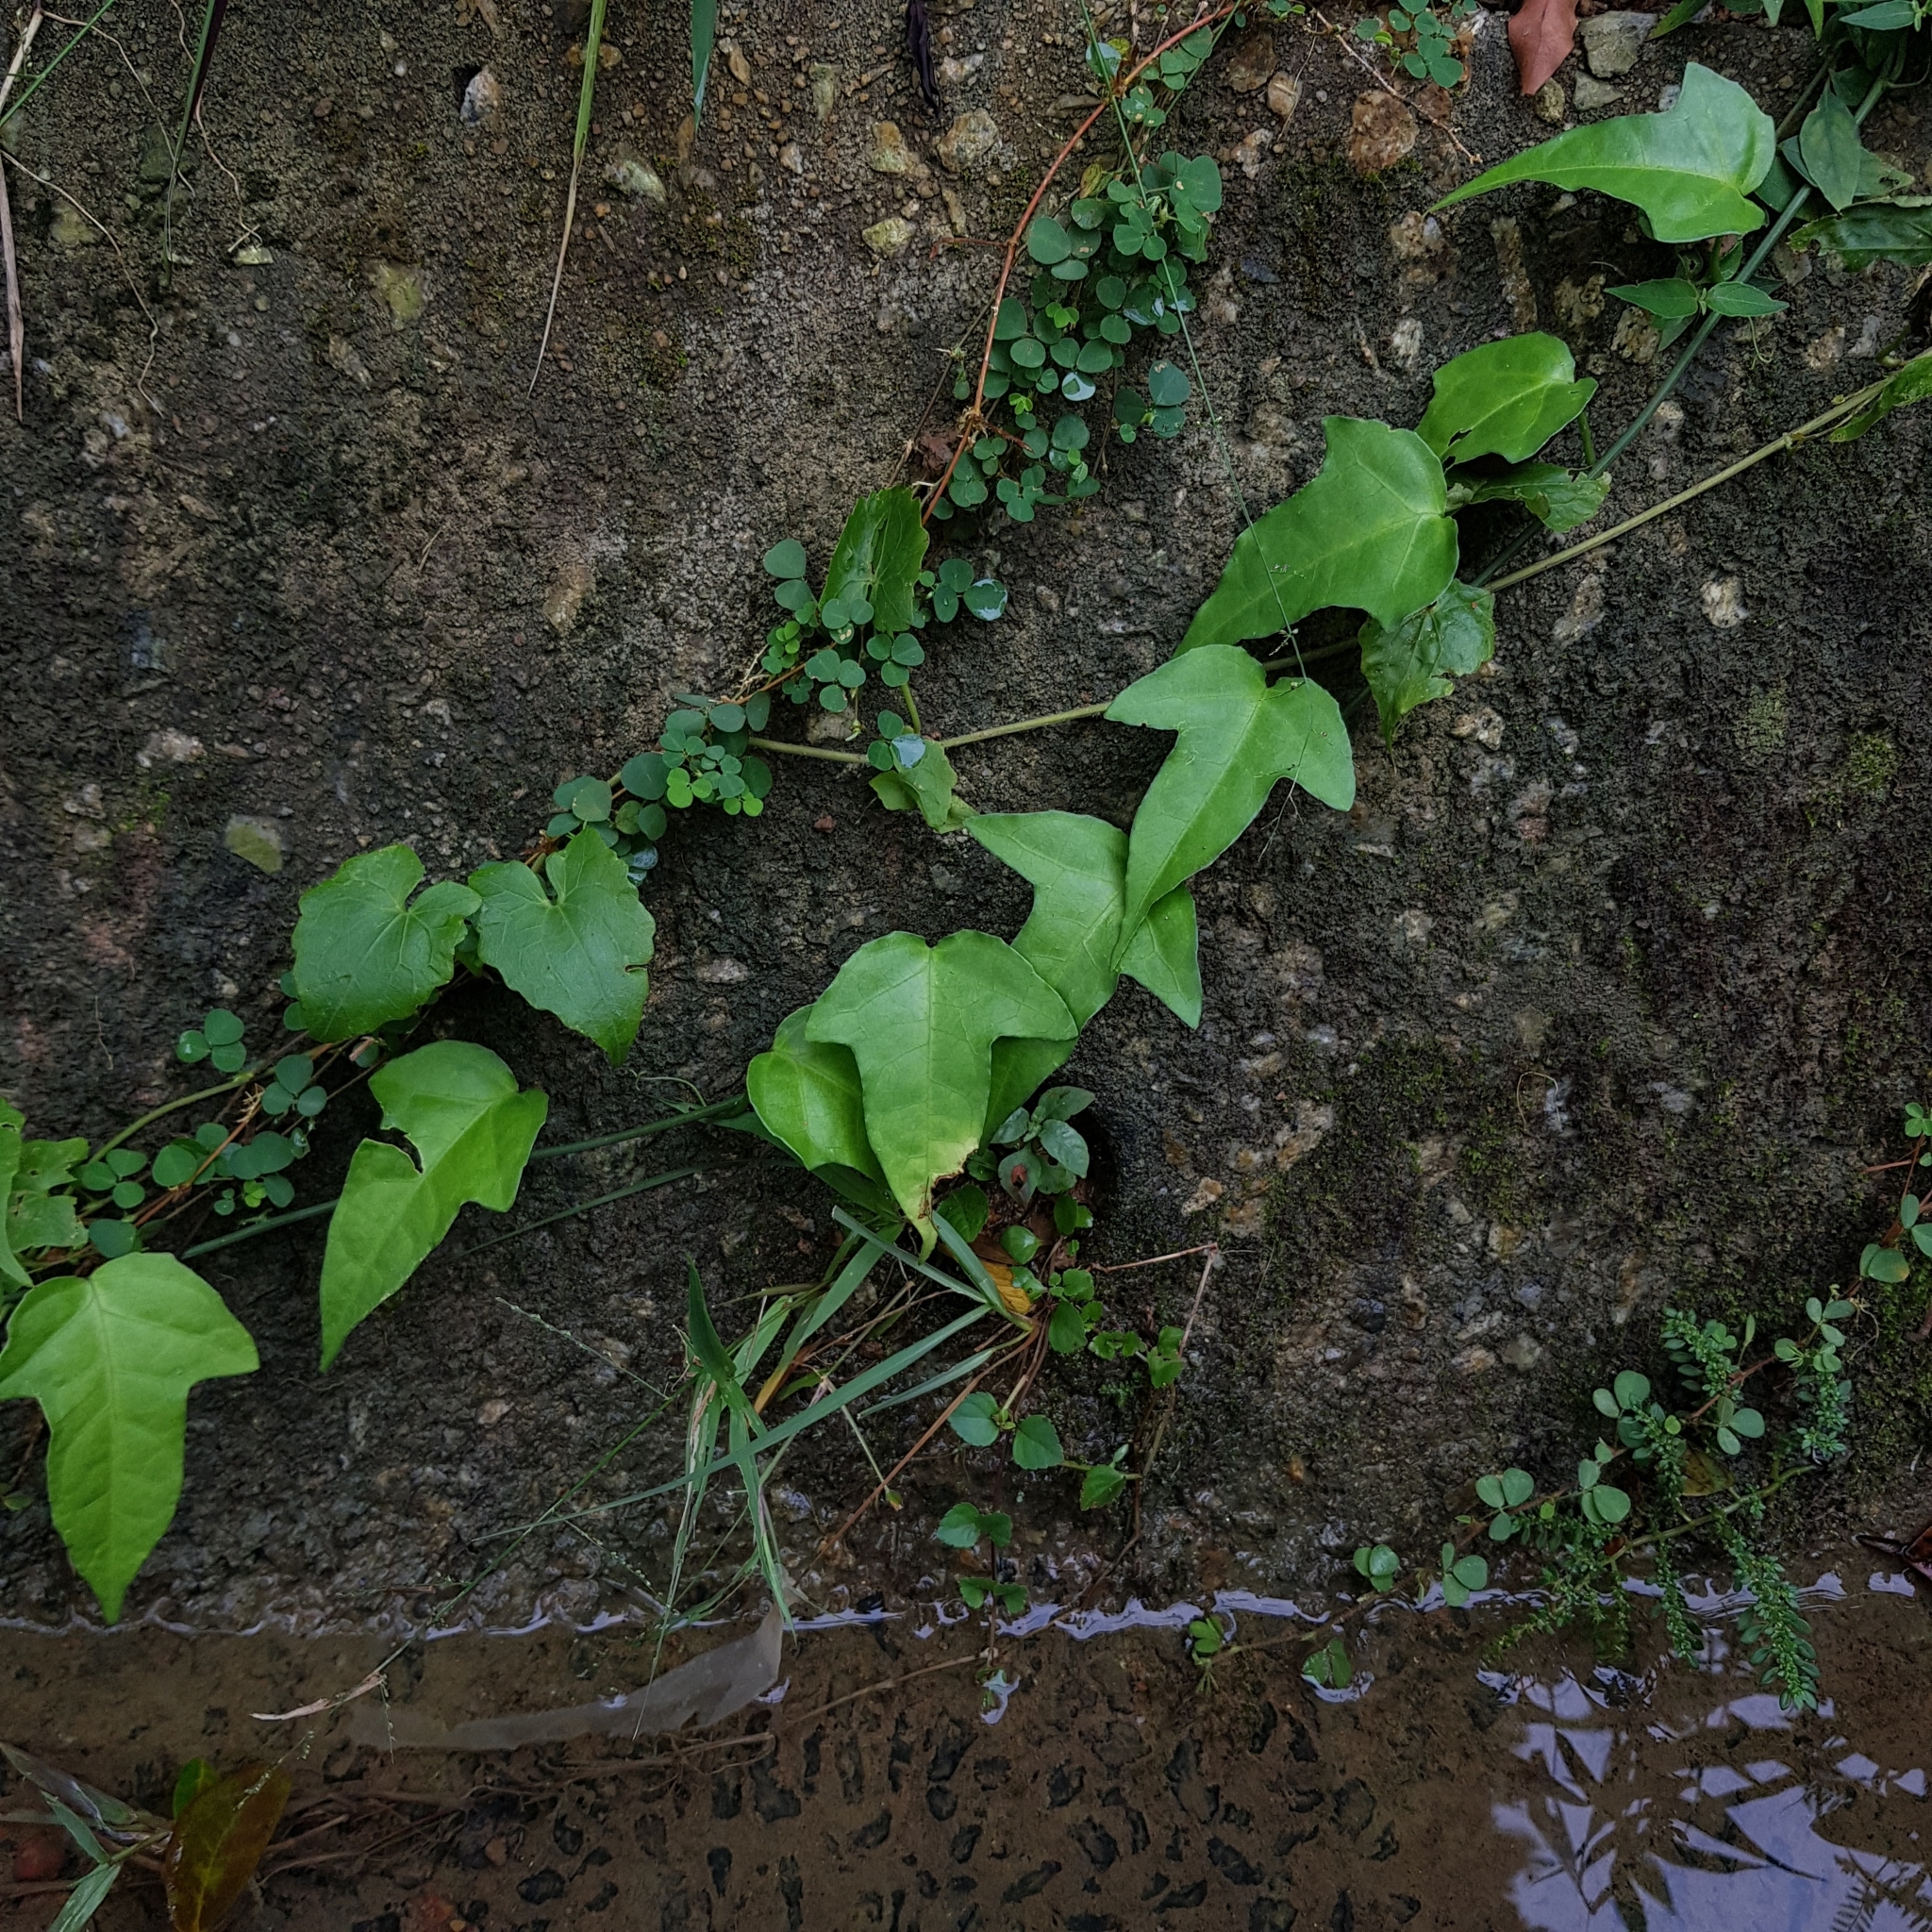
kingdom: Plantae
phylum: Tracheophyta
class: Magnoliopsida
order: Malpighiales
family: Passifloraceae
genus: Adenia
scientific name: Adenia cordifolia
